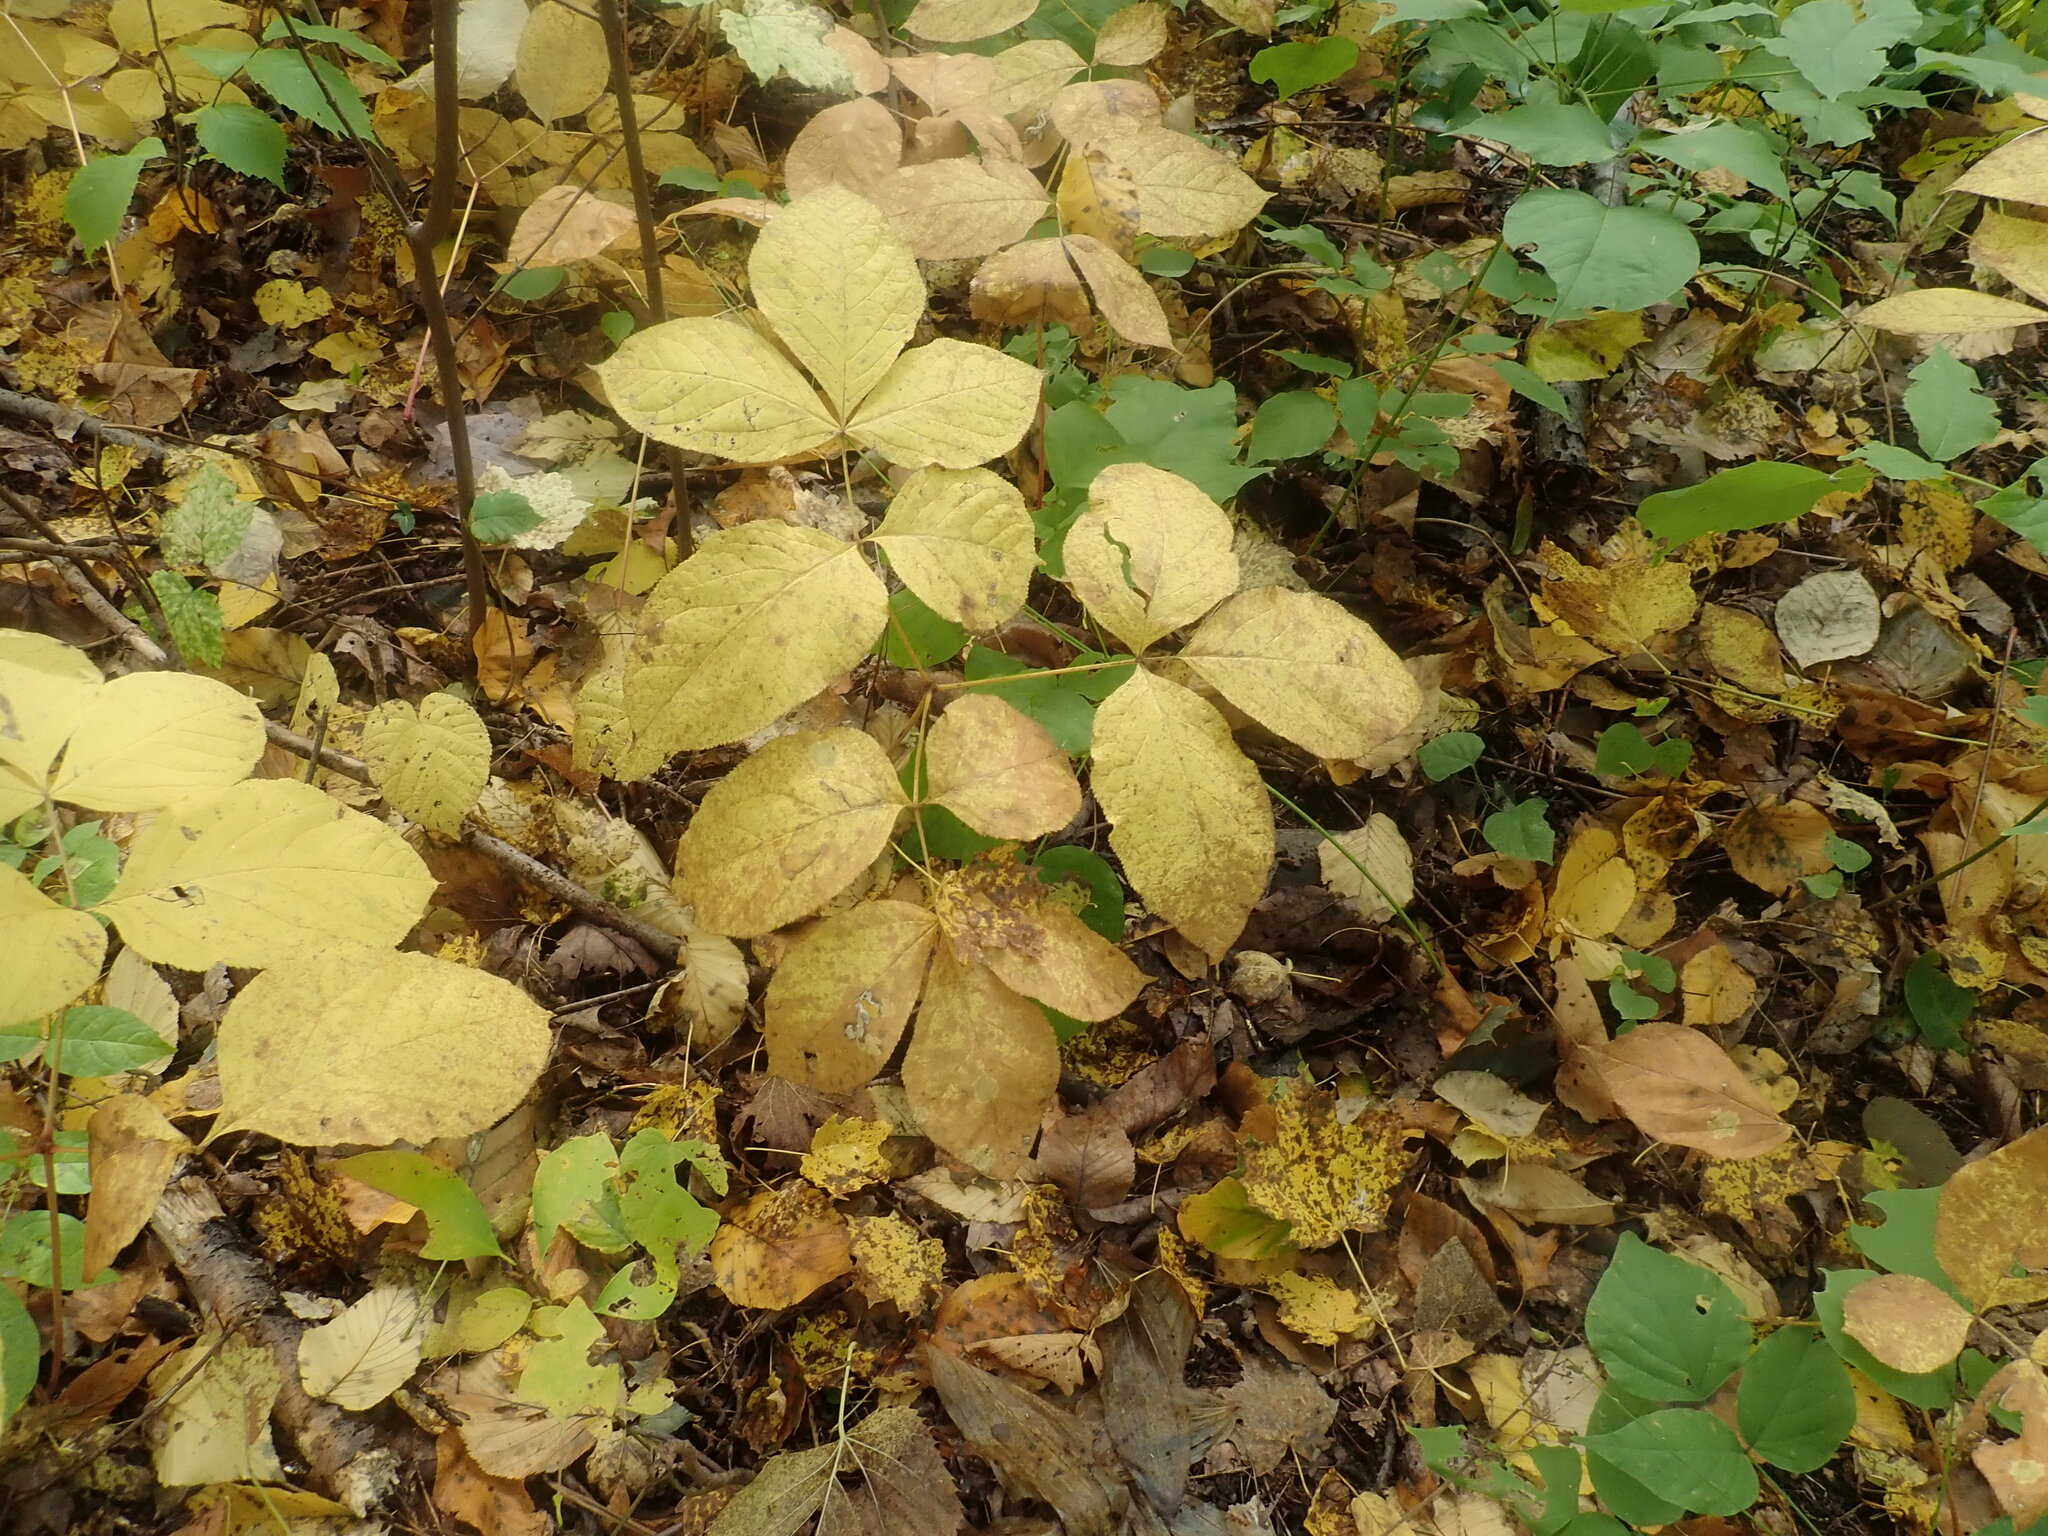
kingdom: Plantae
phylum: Tracheophyta
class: Magnoliopsida
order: Apiales
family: Araliaceae
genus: Aralia
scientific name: Aralia nudicaulis
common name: Wild sarsaparilla
